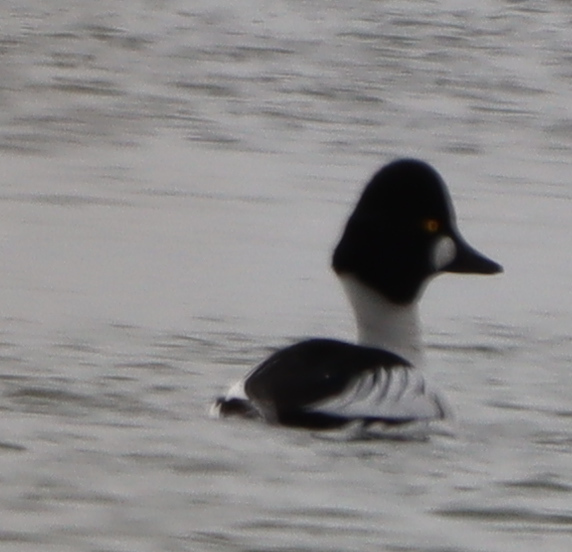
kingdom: Animalia
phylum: Chordata
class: Aves
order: Anseriformes
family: Anatidae
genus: Bucephala
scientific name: Bucephala clangula
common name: Common goldeneye
